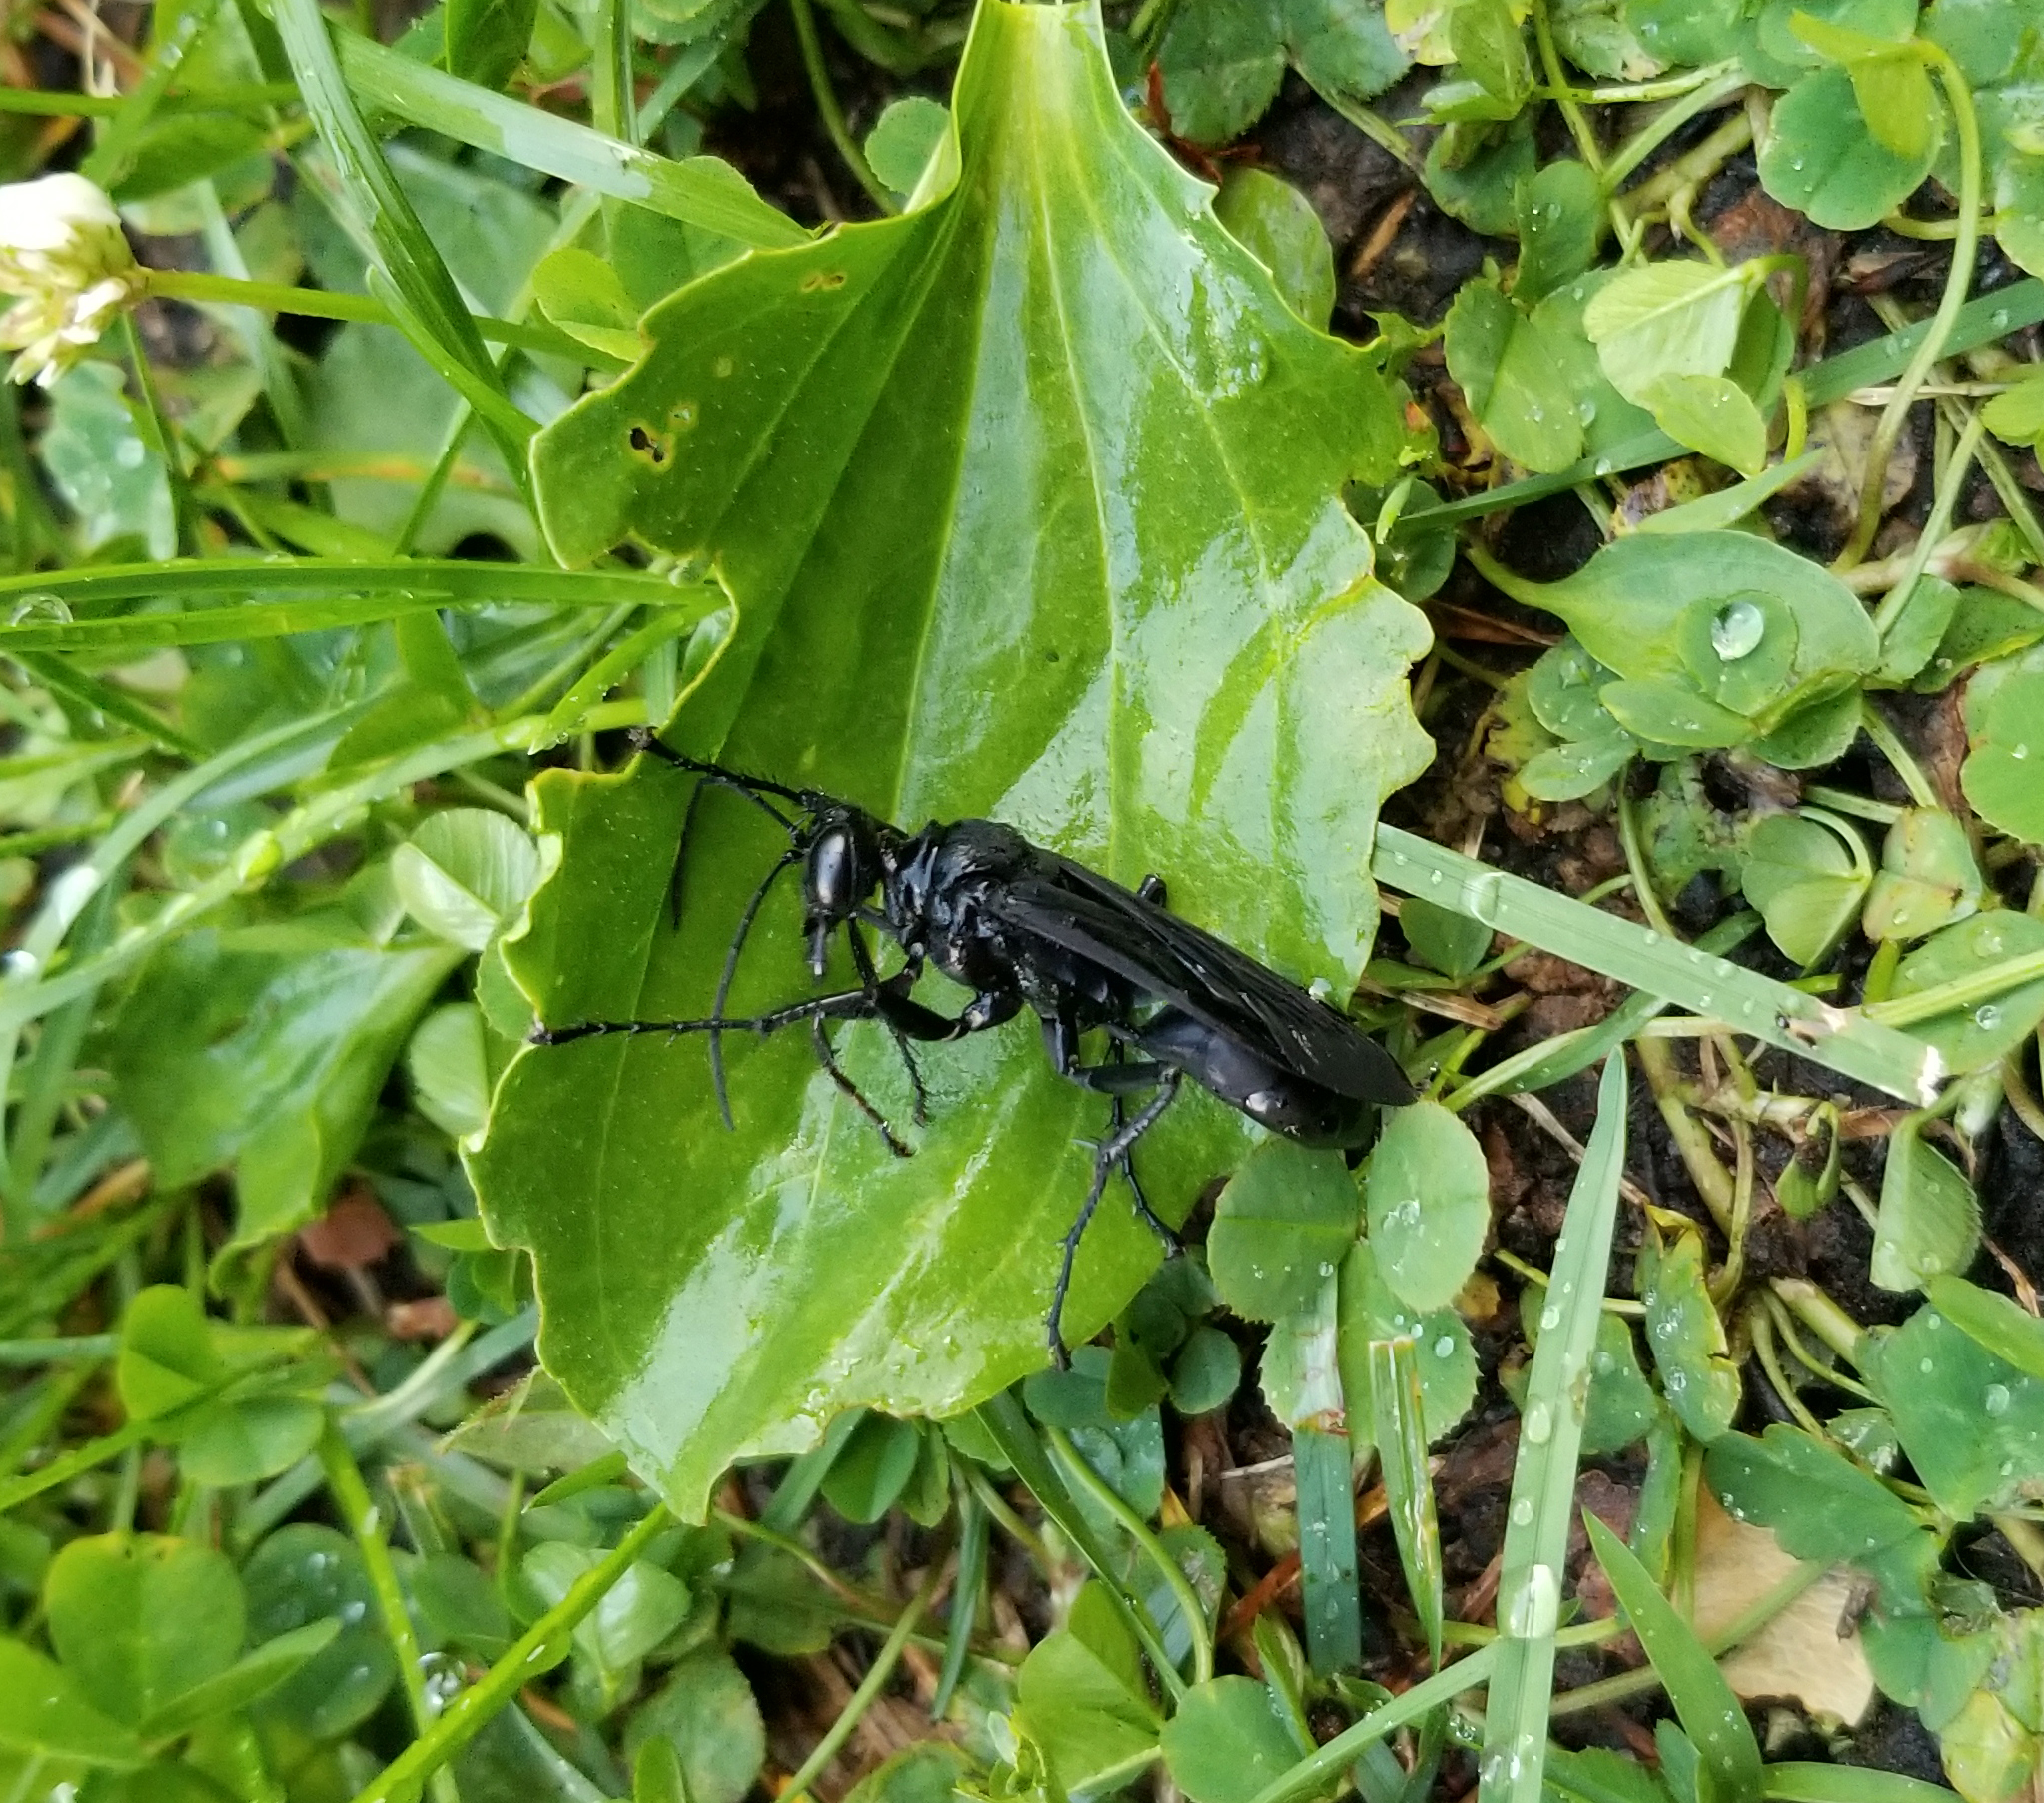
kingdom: Animalia
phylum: Arthropoda
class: Insecta
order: Hymenoptera
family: Sphecidae
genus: Sphex
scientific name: Sphex pensylvanicus
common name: Great black digger wasp
